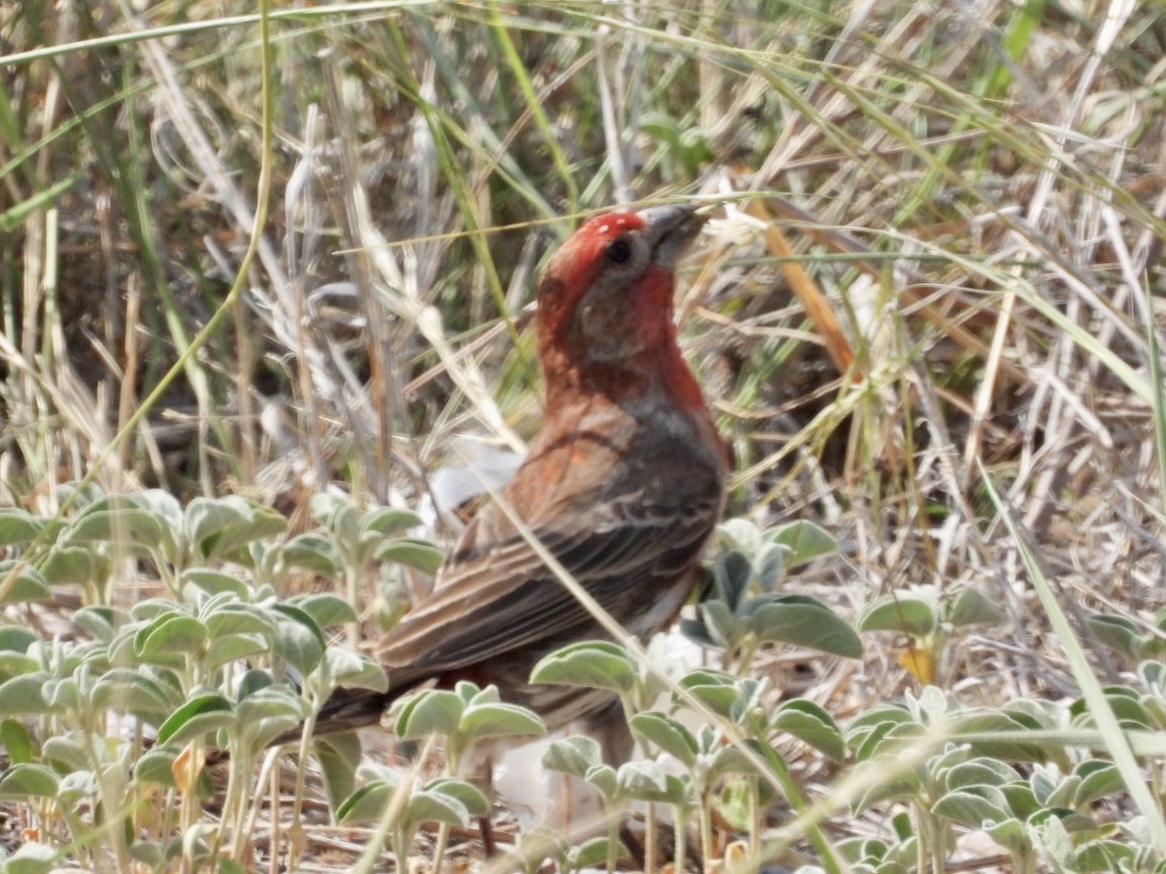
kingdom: Animalia
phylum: Chordata
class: Aves
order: Passeriformes
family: Fringillidae
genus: Haemorhous
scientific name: Haemorhous mexicanus
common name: House finch
